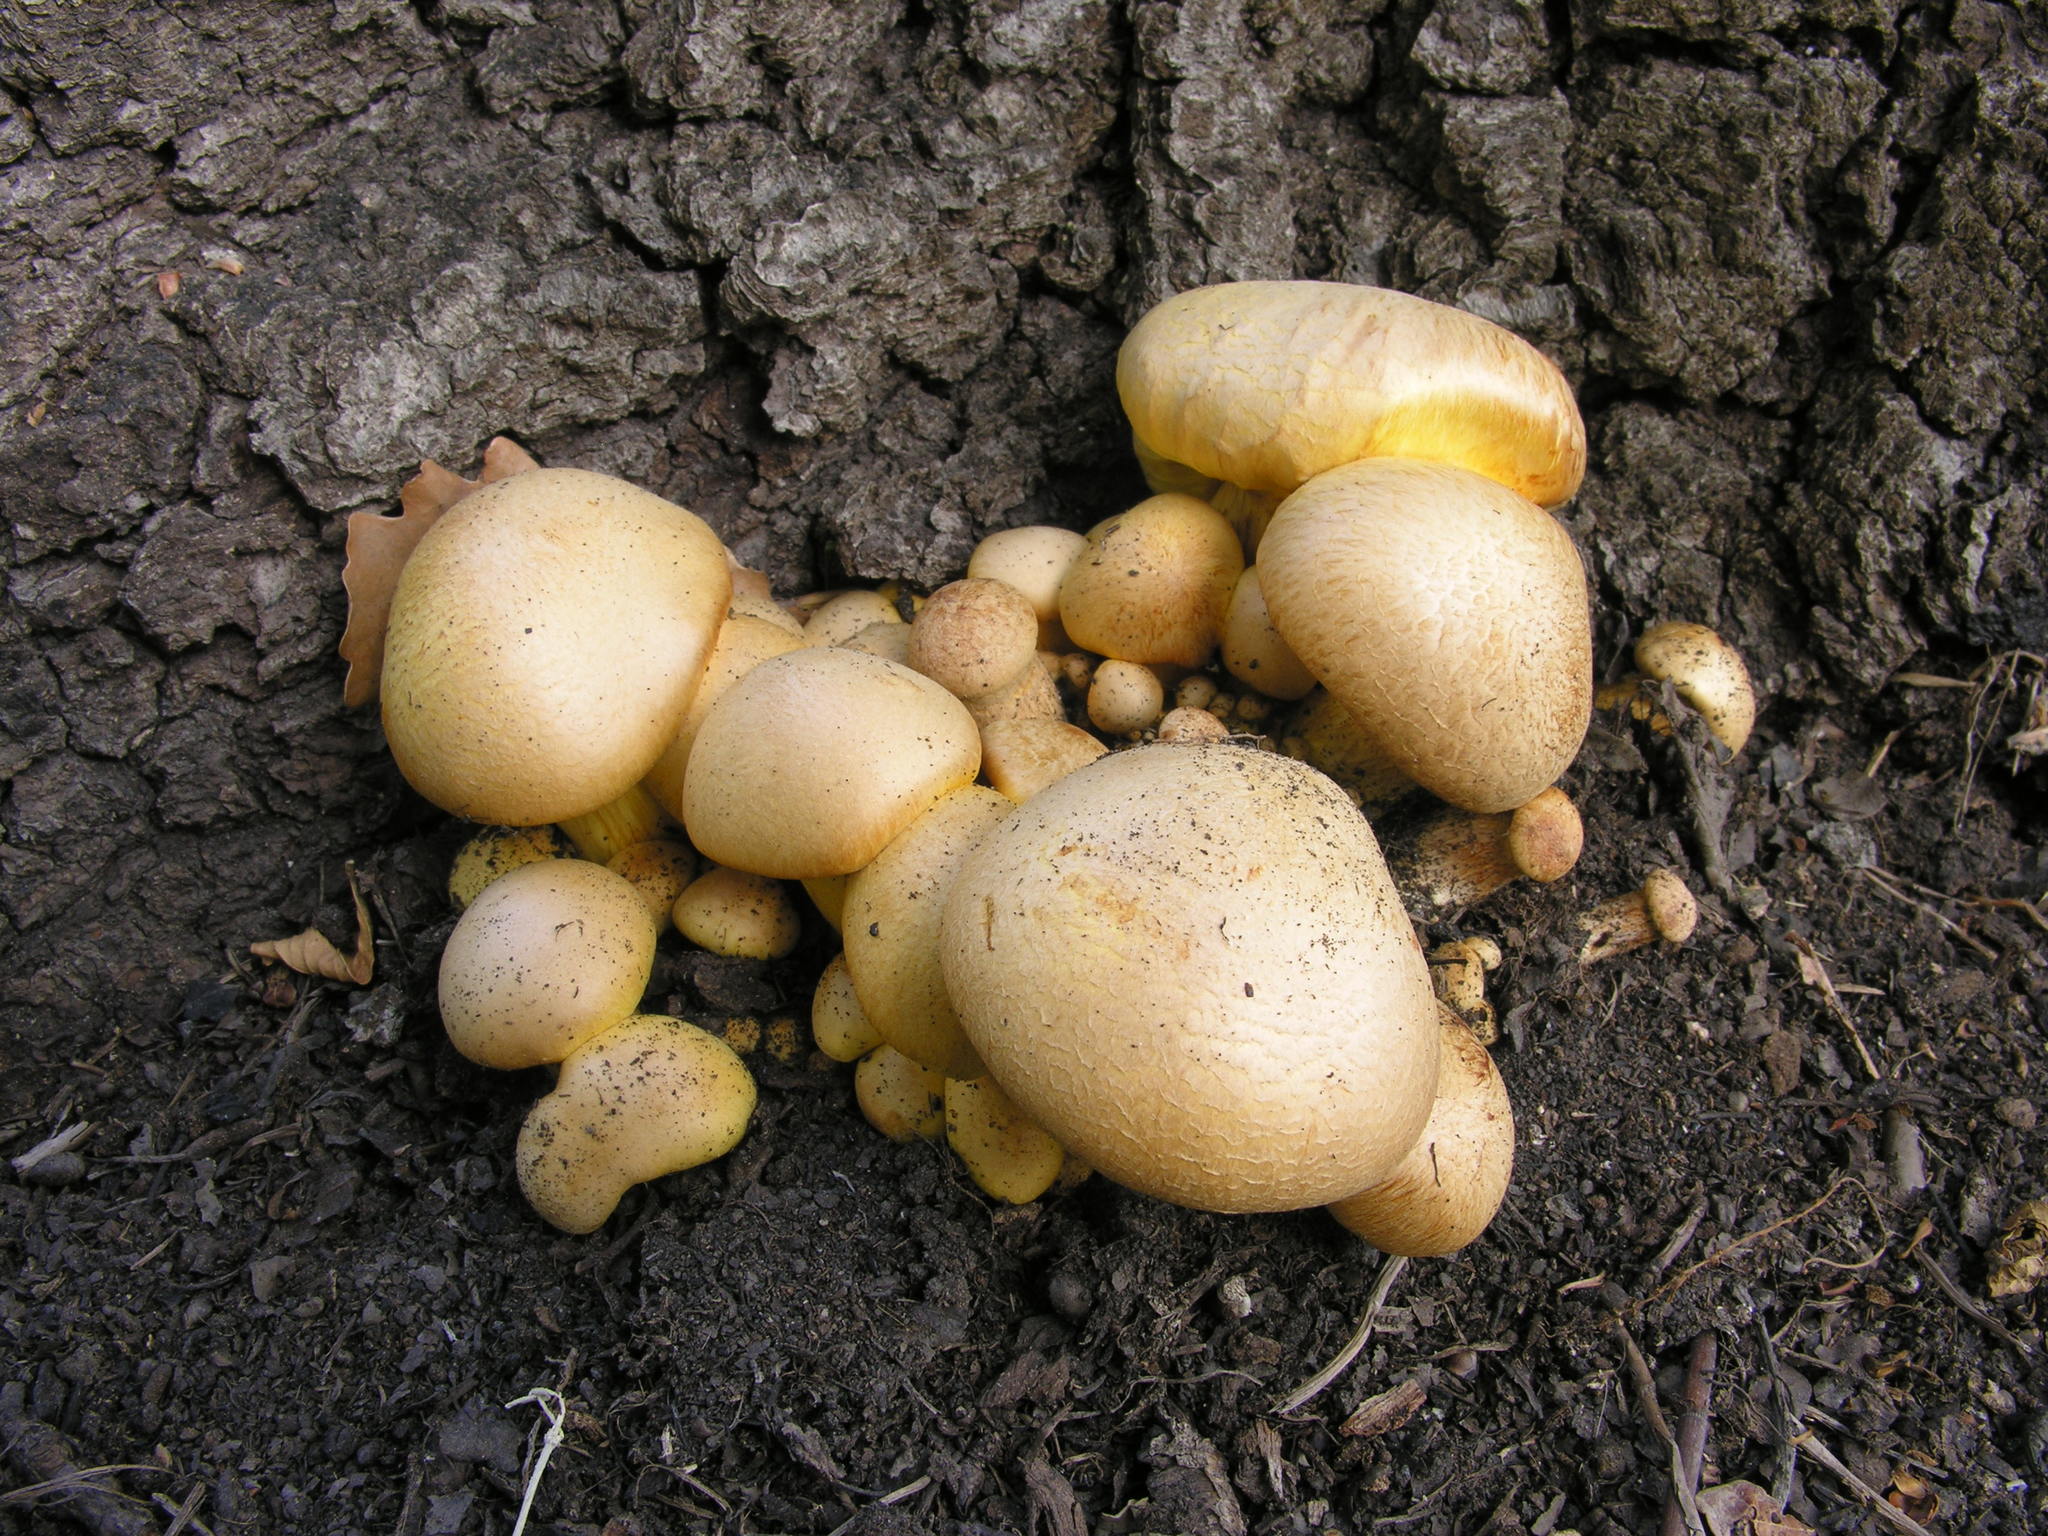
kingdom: Fungi
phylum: Basidiomycota
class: Agaricomycetes
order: Agaricales
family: Hymenogastraceae
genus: Gymnopilus
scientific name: Gymnopilus junonius
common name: Spectacular rustgill
